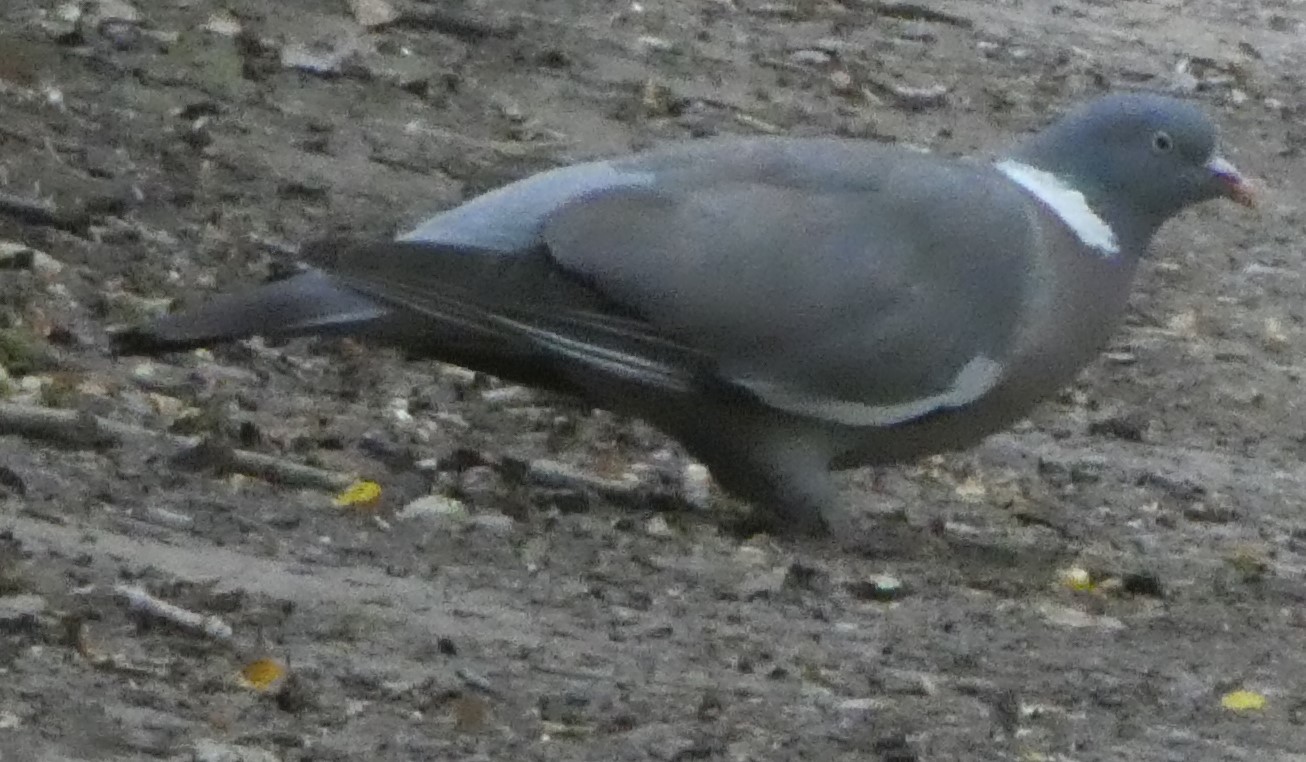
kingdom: Animalia
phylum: Chordata
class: Aves
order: Columbiformes
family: Columbidae
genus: Columba
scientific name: Columba palumbus
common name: Common wood pigeon
